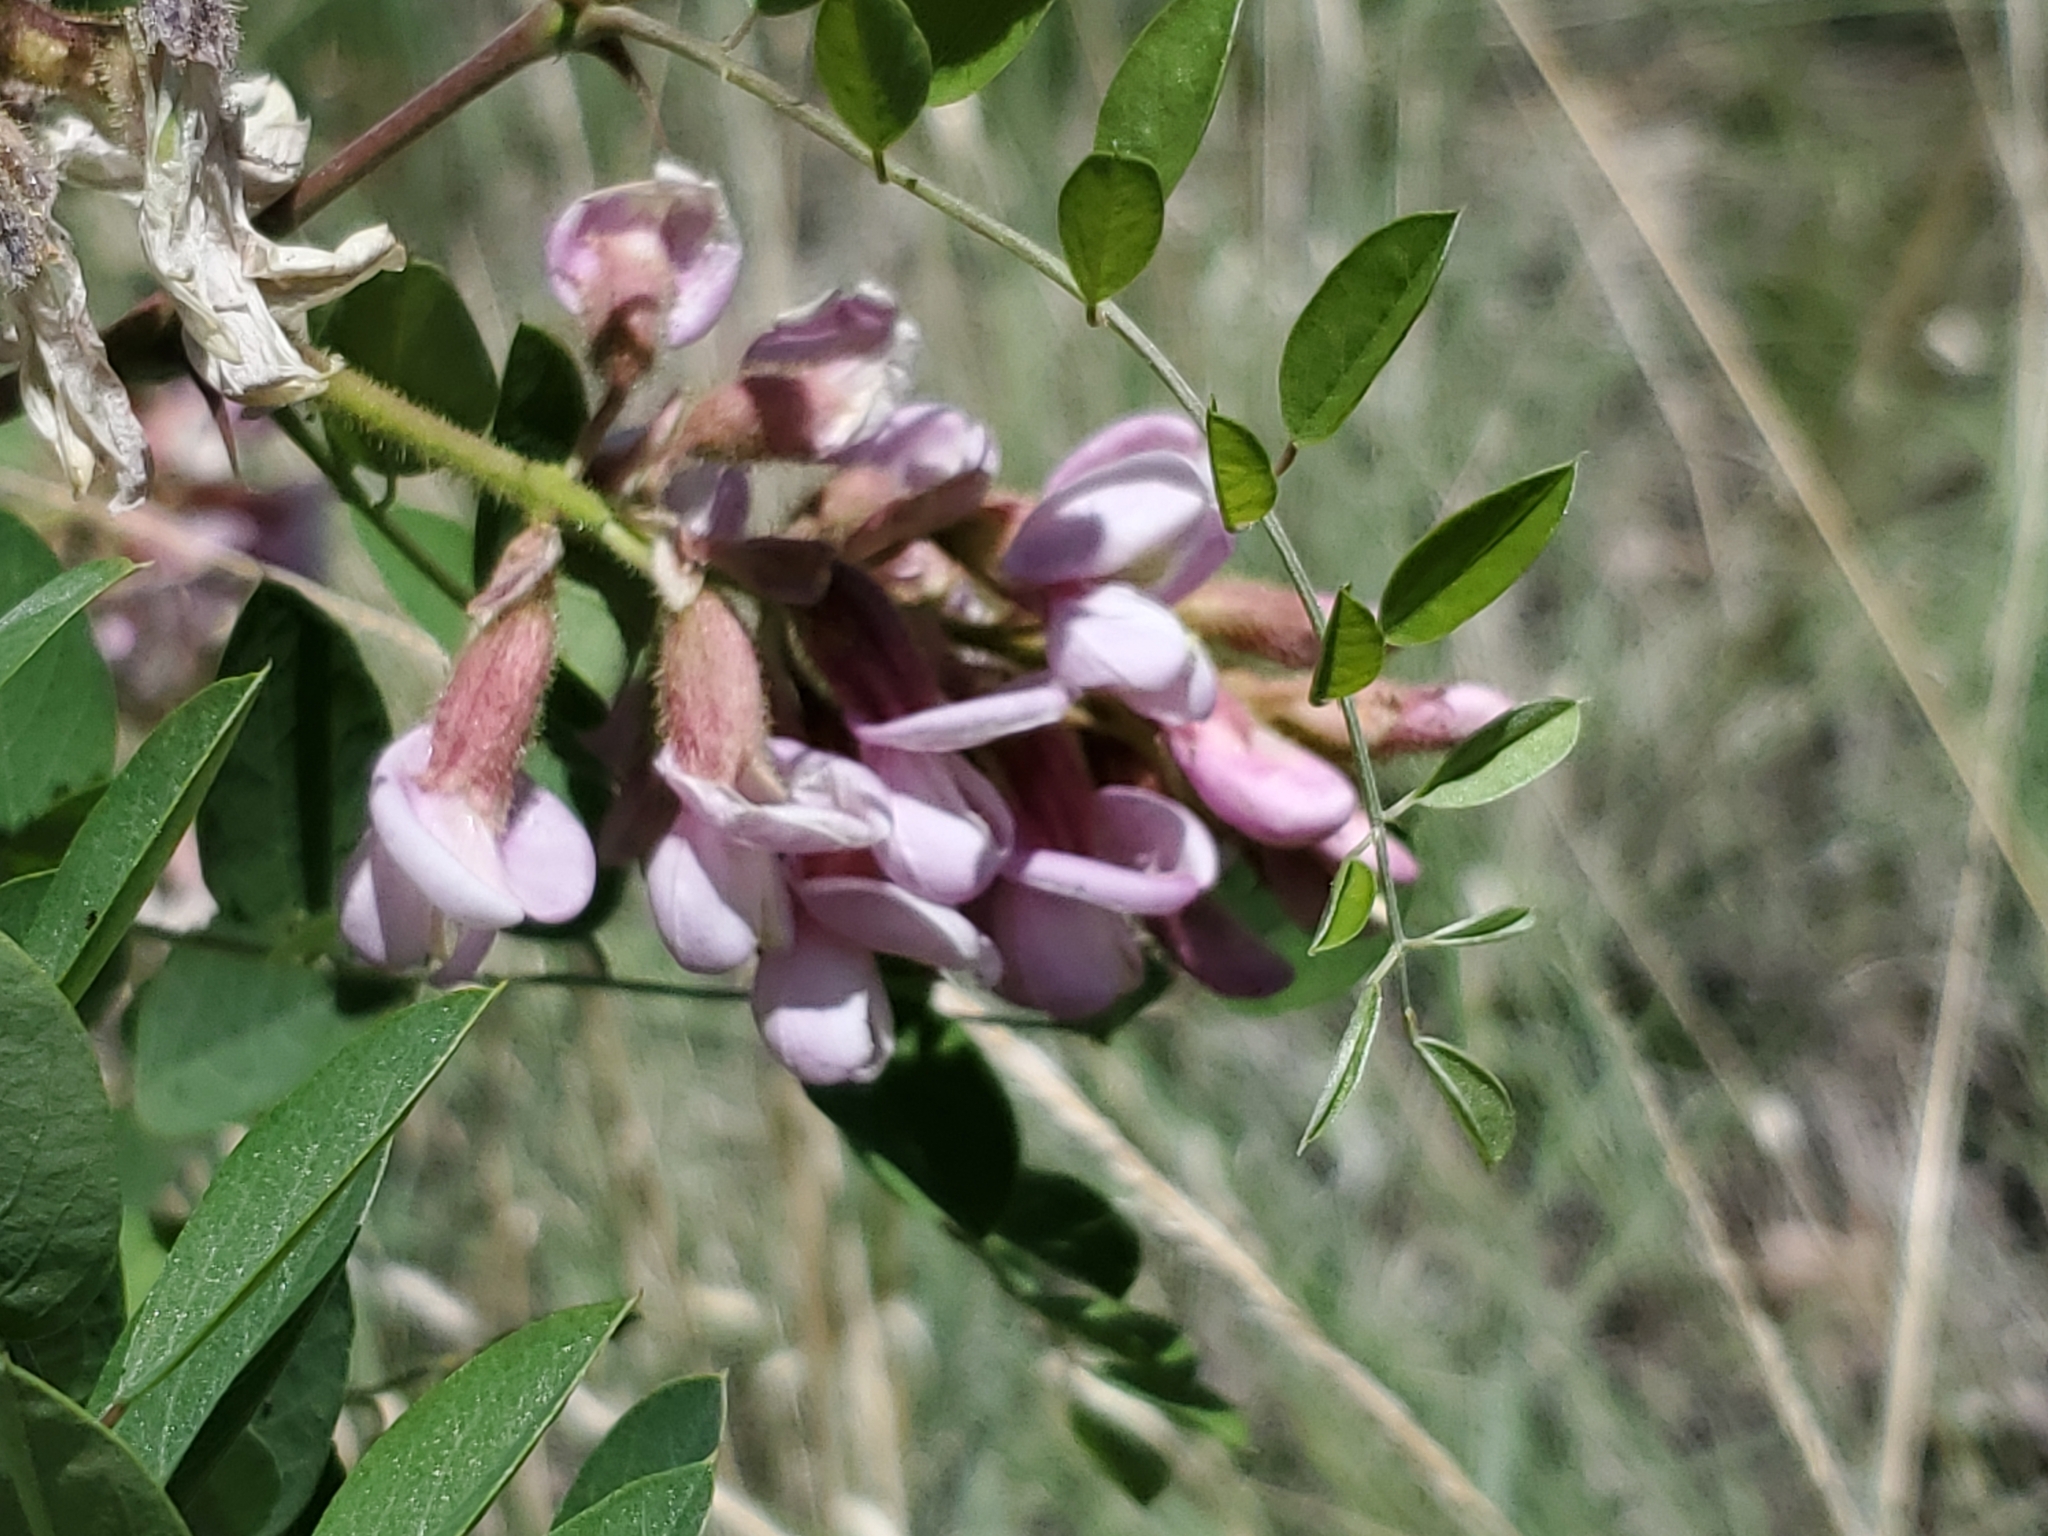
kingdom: Plantae
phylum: Tracheophyta
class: Magnoliopsida
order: Fabales
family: Fabaceae
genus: Robinia
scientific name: Robinia neomexicana
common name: New mexico locust
